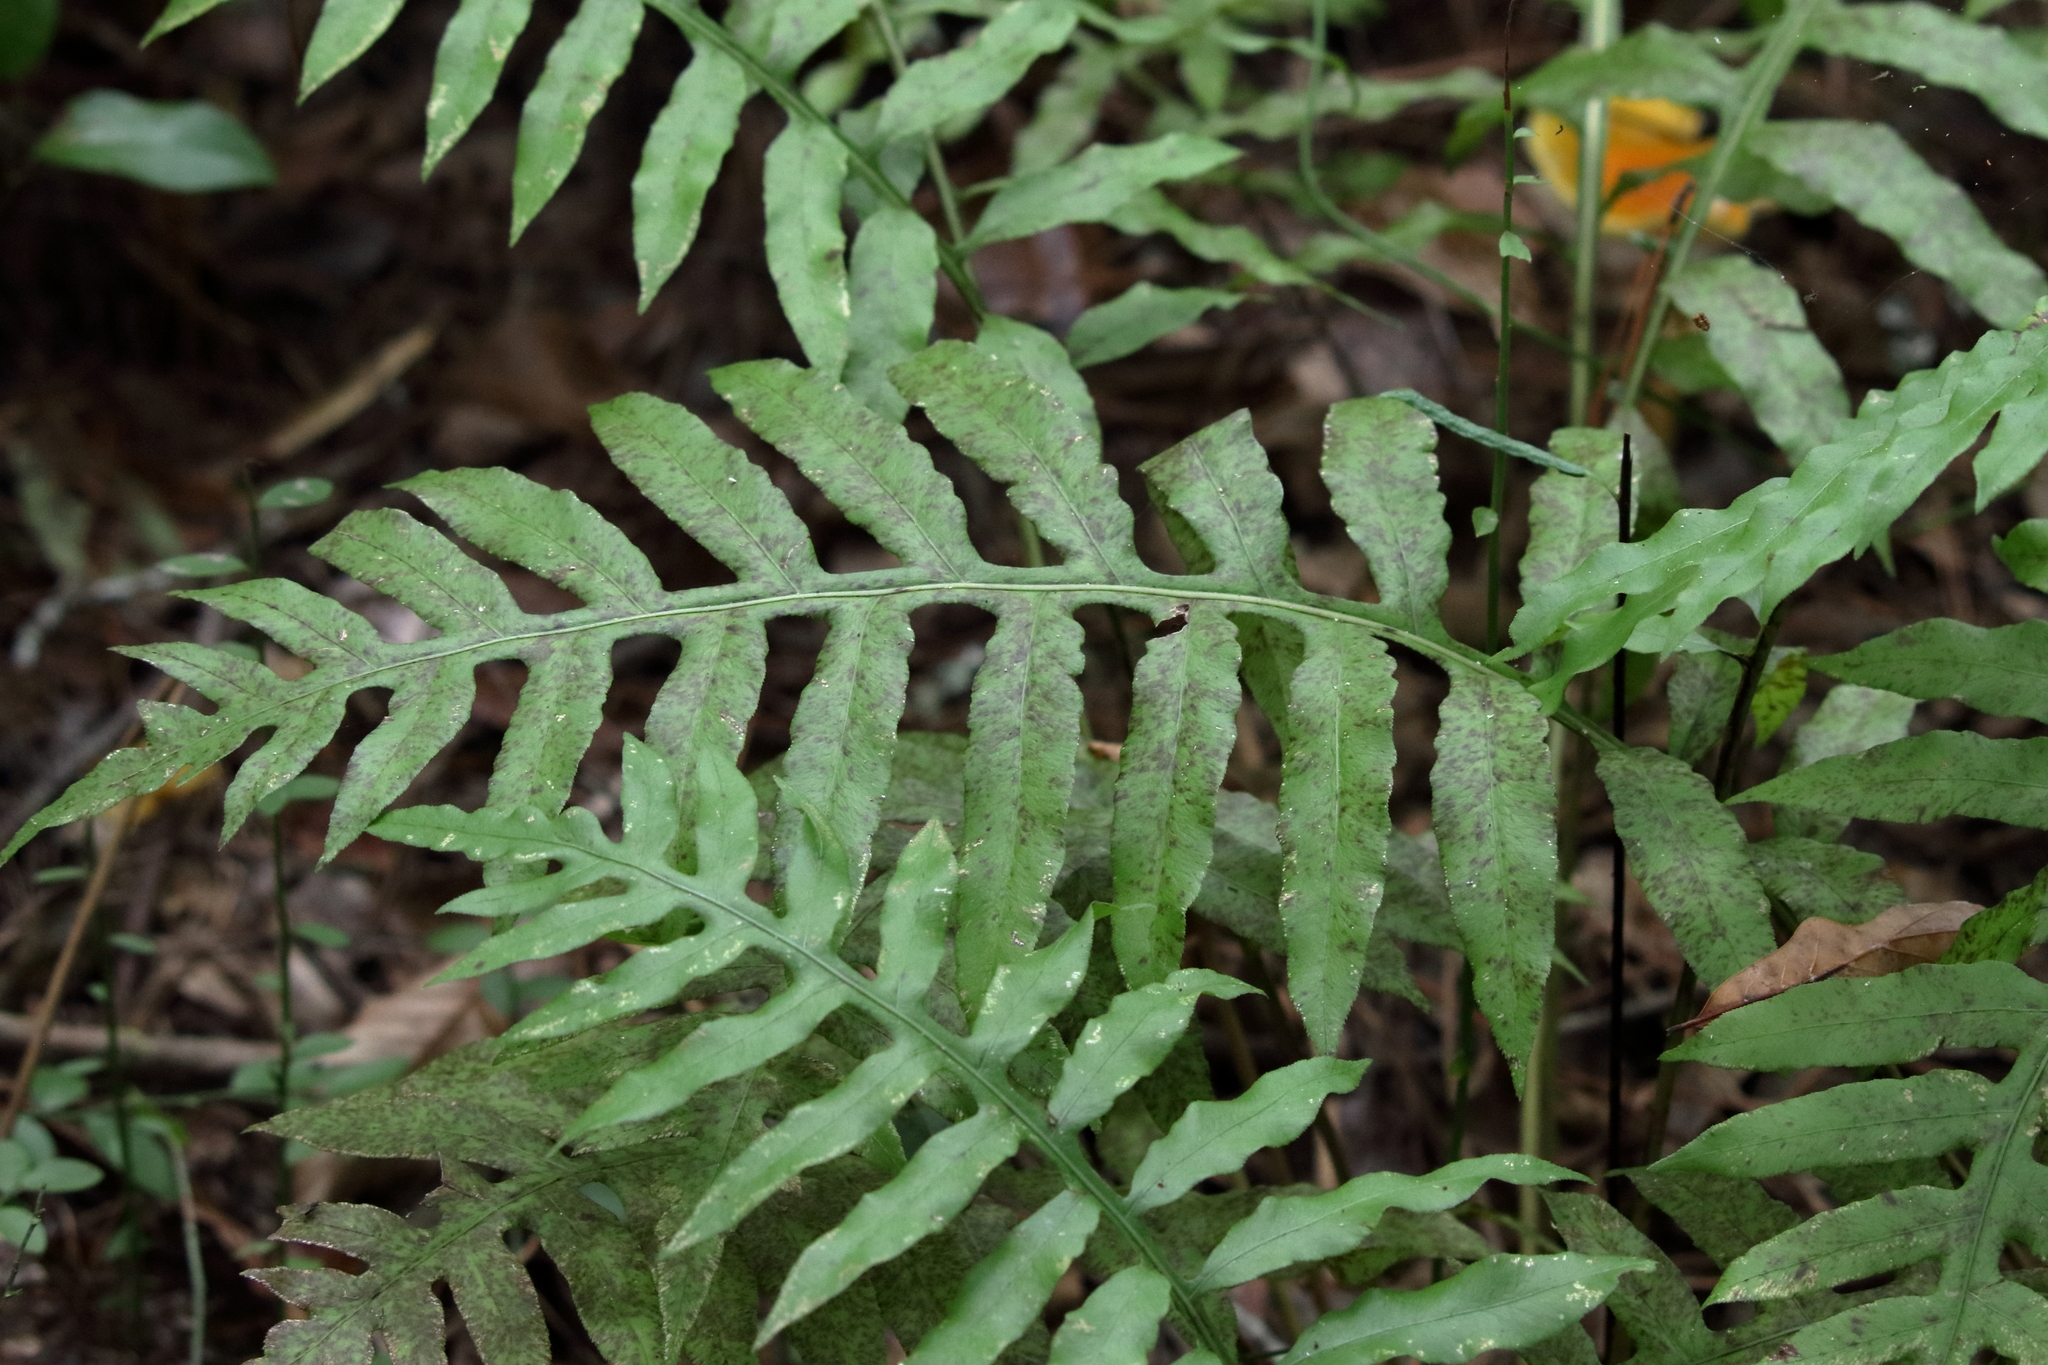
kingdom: Plantae
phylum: Tracheophyta
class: Polypodiopsida
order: Polypodiales
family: Blechnaceae
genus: Lorinseria
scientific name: Lorinseria areolata
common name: Dwarf chain fern
